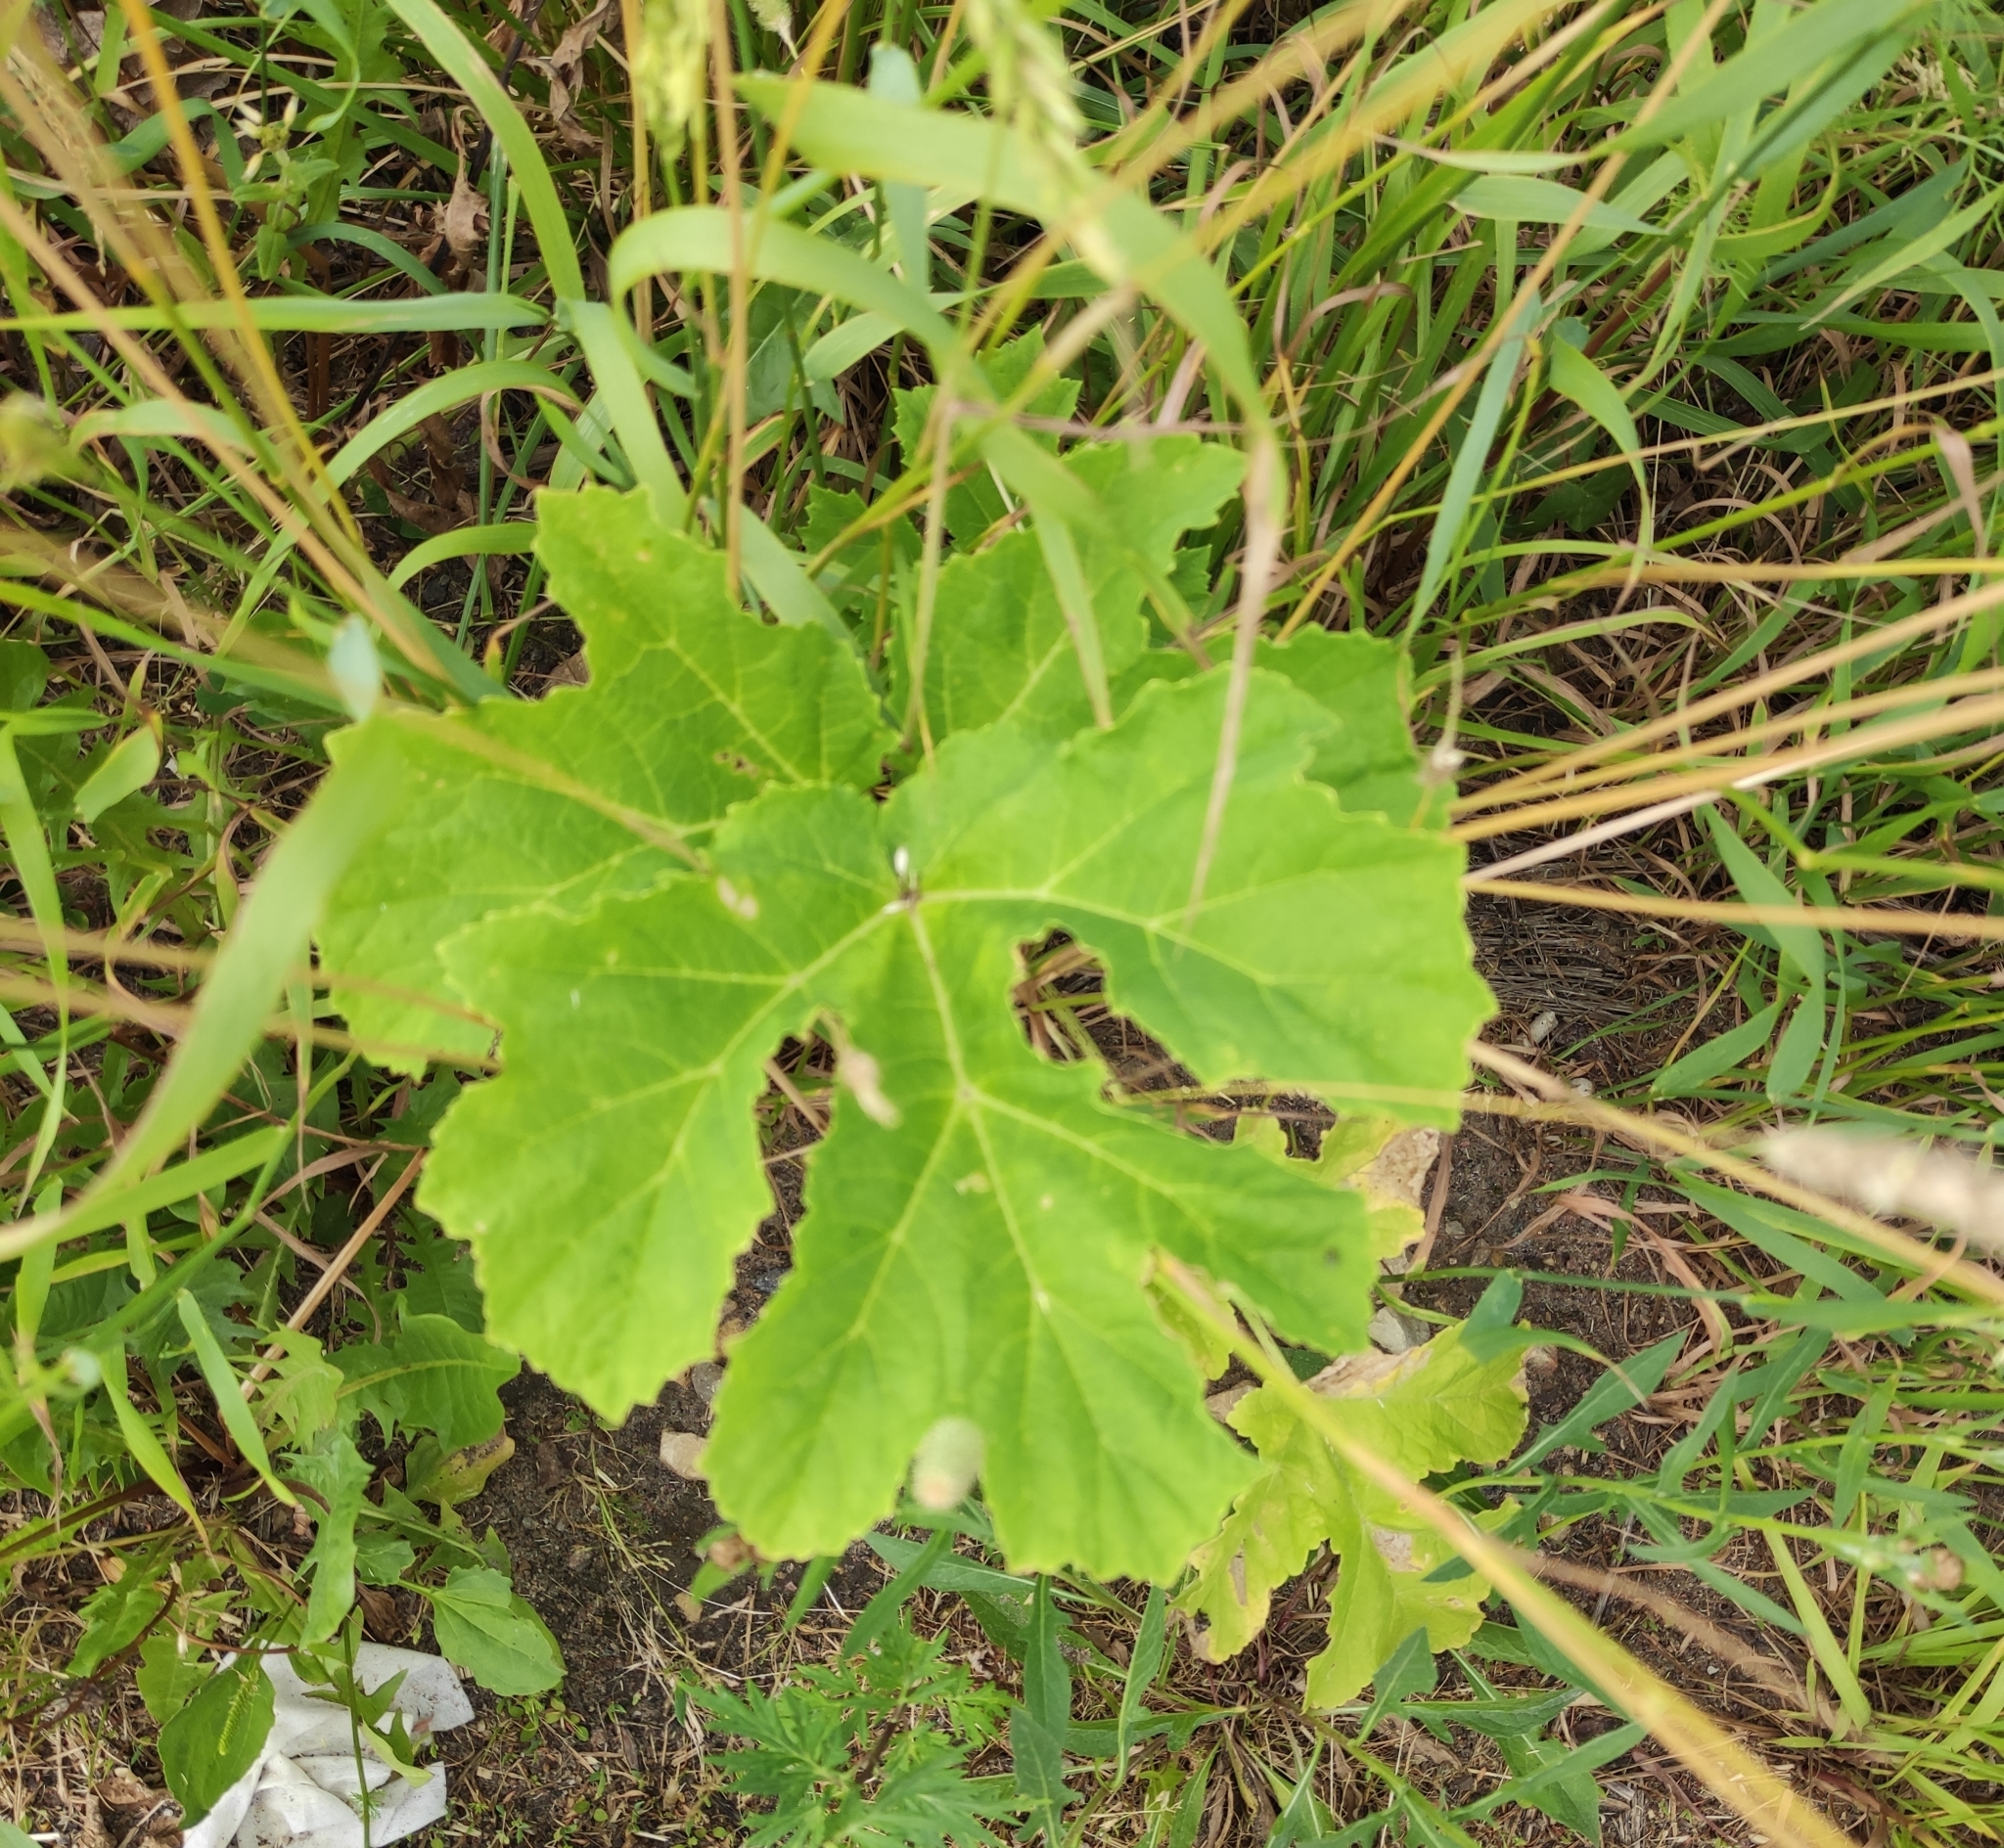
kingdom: Plantae
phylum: Tracheophyta
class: Magnoliopsida
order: Apiales
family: Apiaceae
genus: Heracleum
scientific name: Heracleum sosnowskyi
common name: Sosnowsky's hogweed
